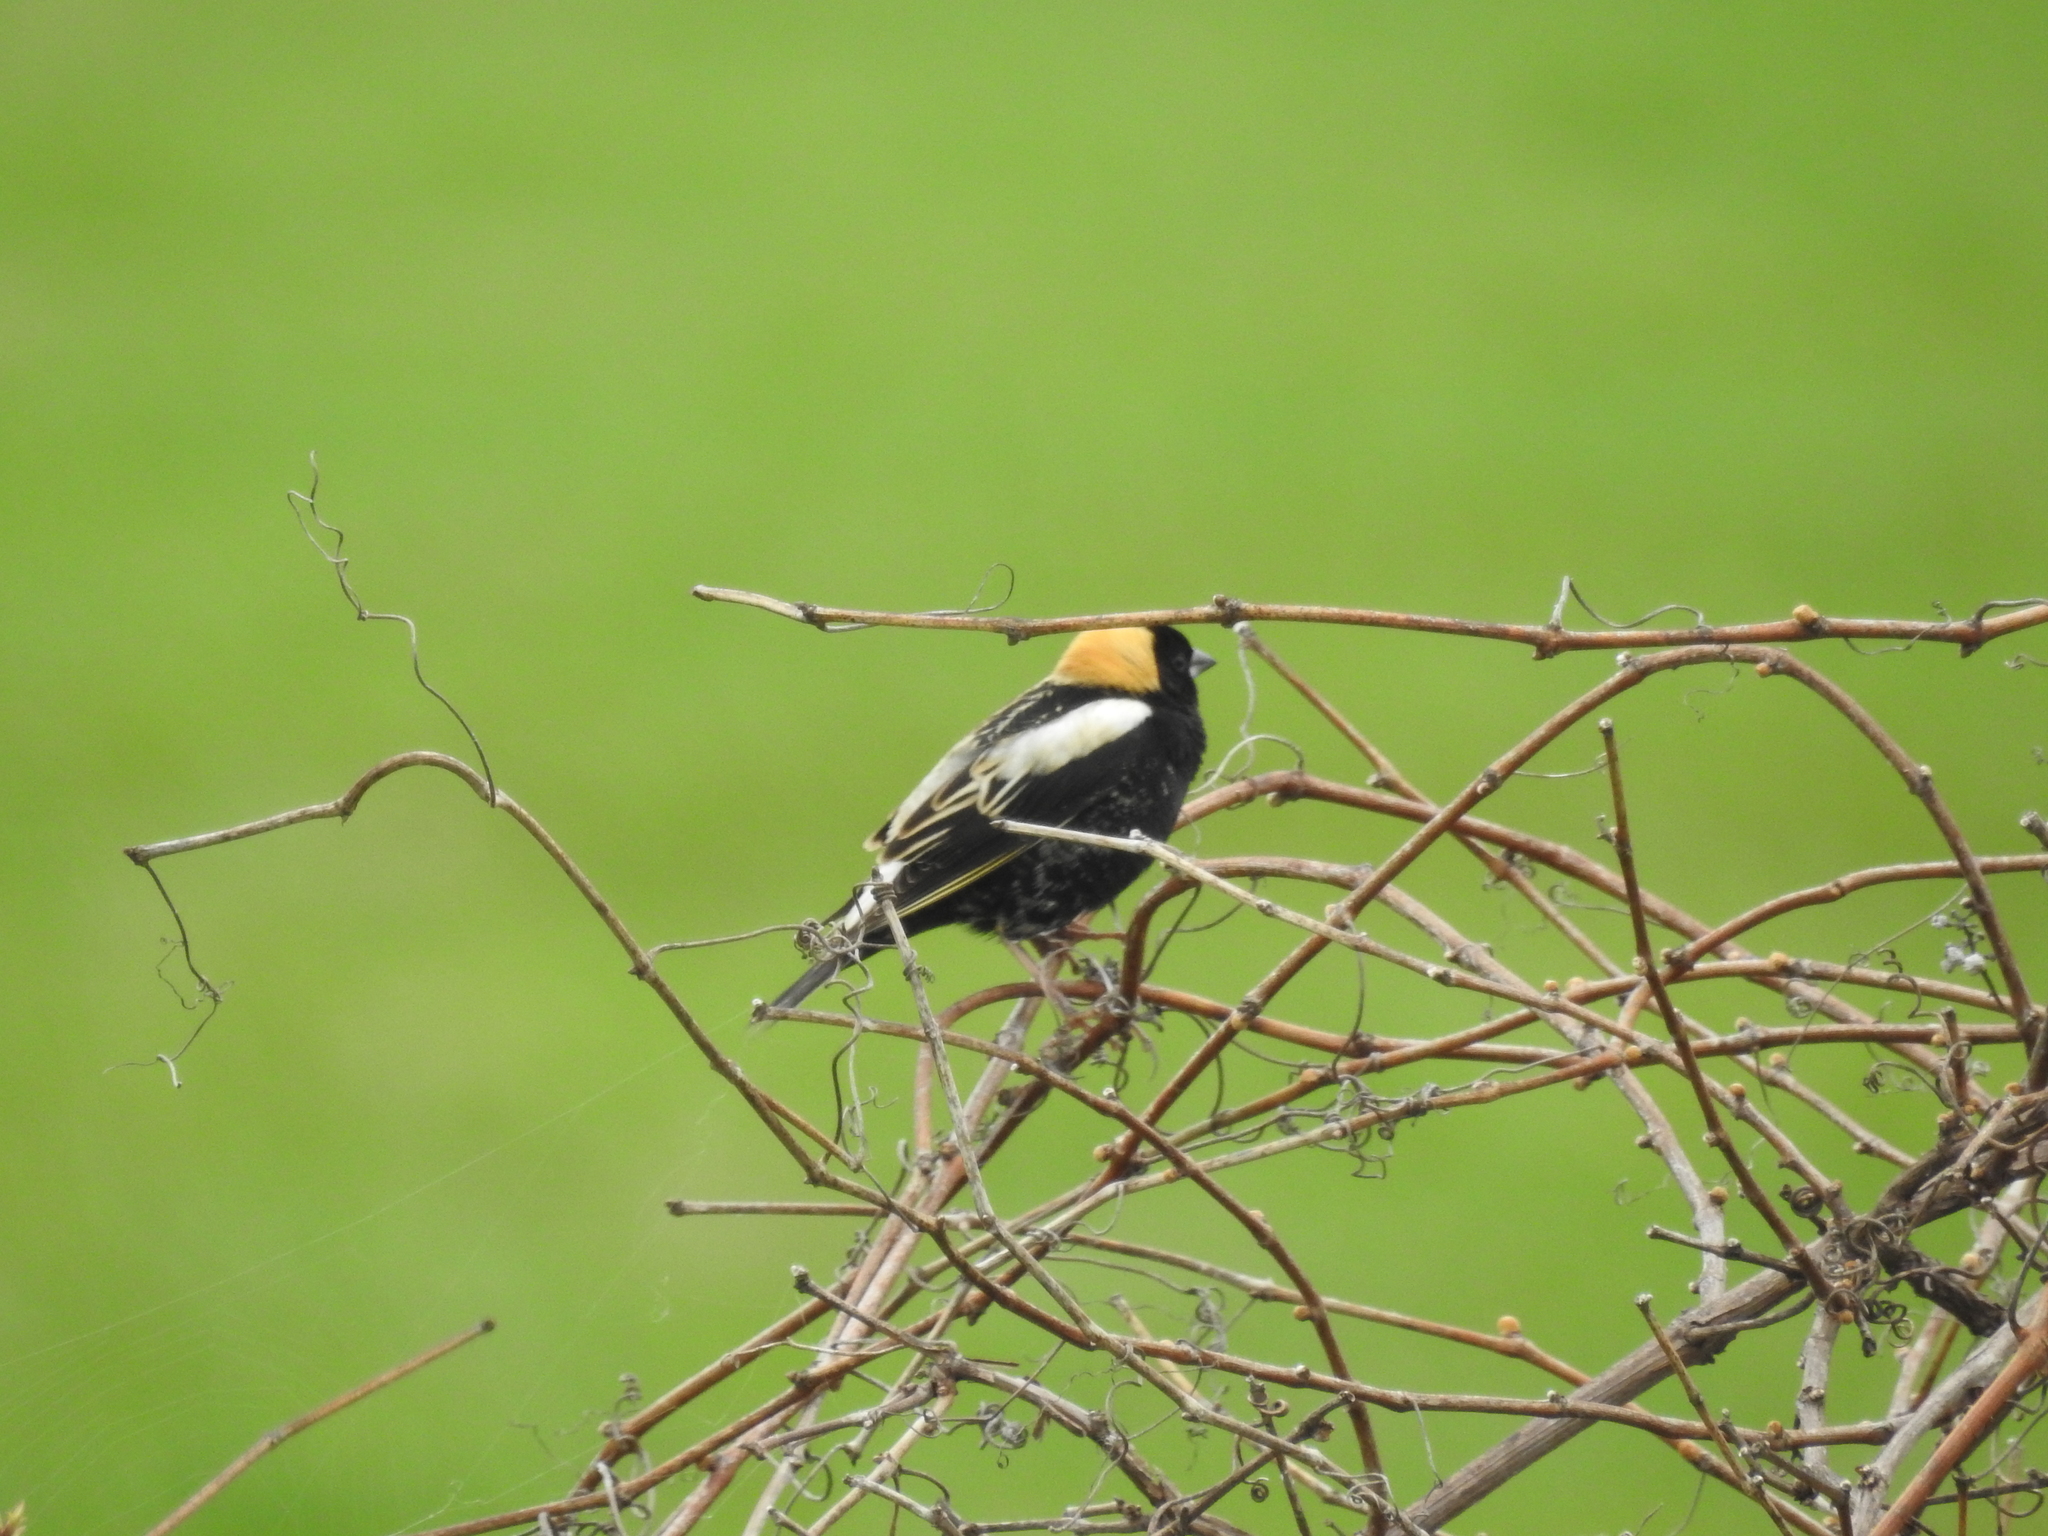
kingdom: Animalia
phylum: Chordata
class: Aves
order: Passeriformes
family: Icteridae
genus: Dolichonyx
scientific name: Dolichonyx oryzivorus
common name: Bobolink
